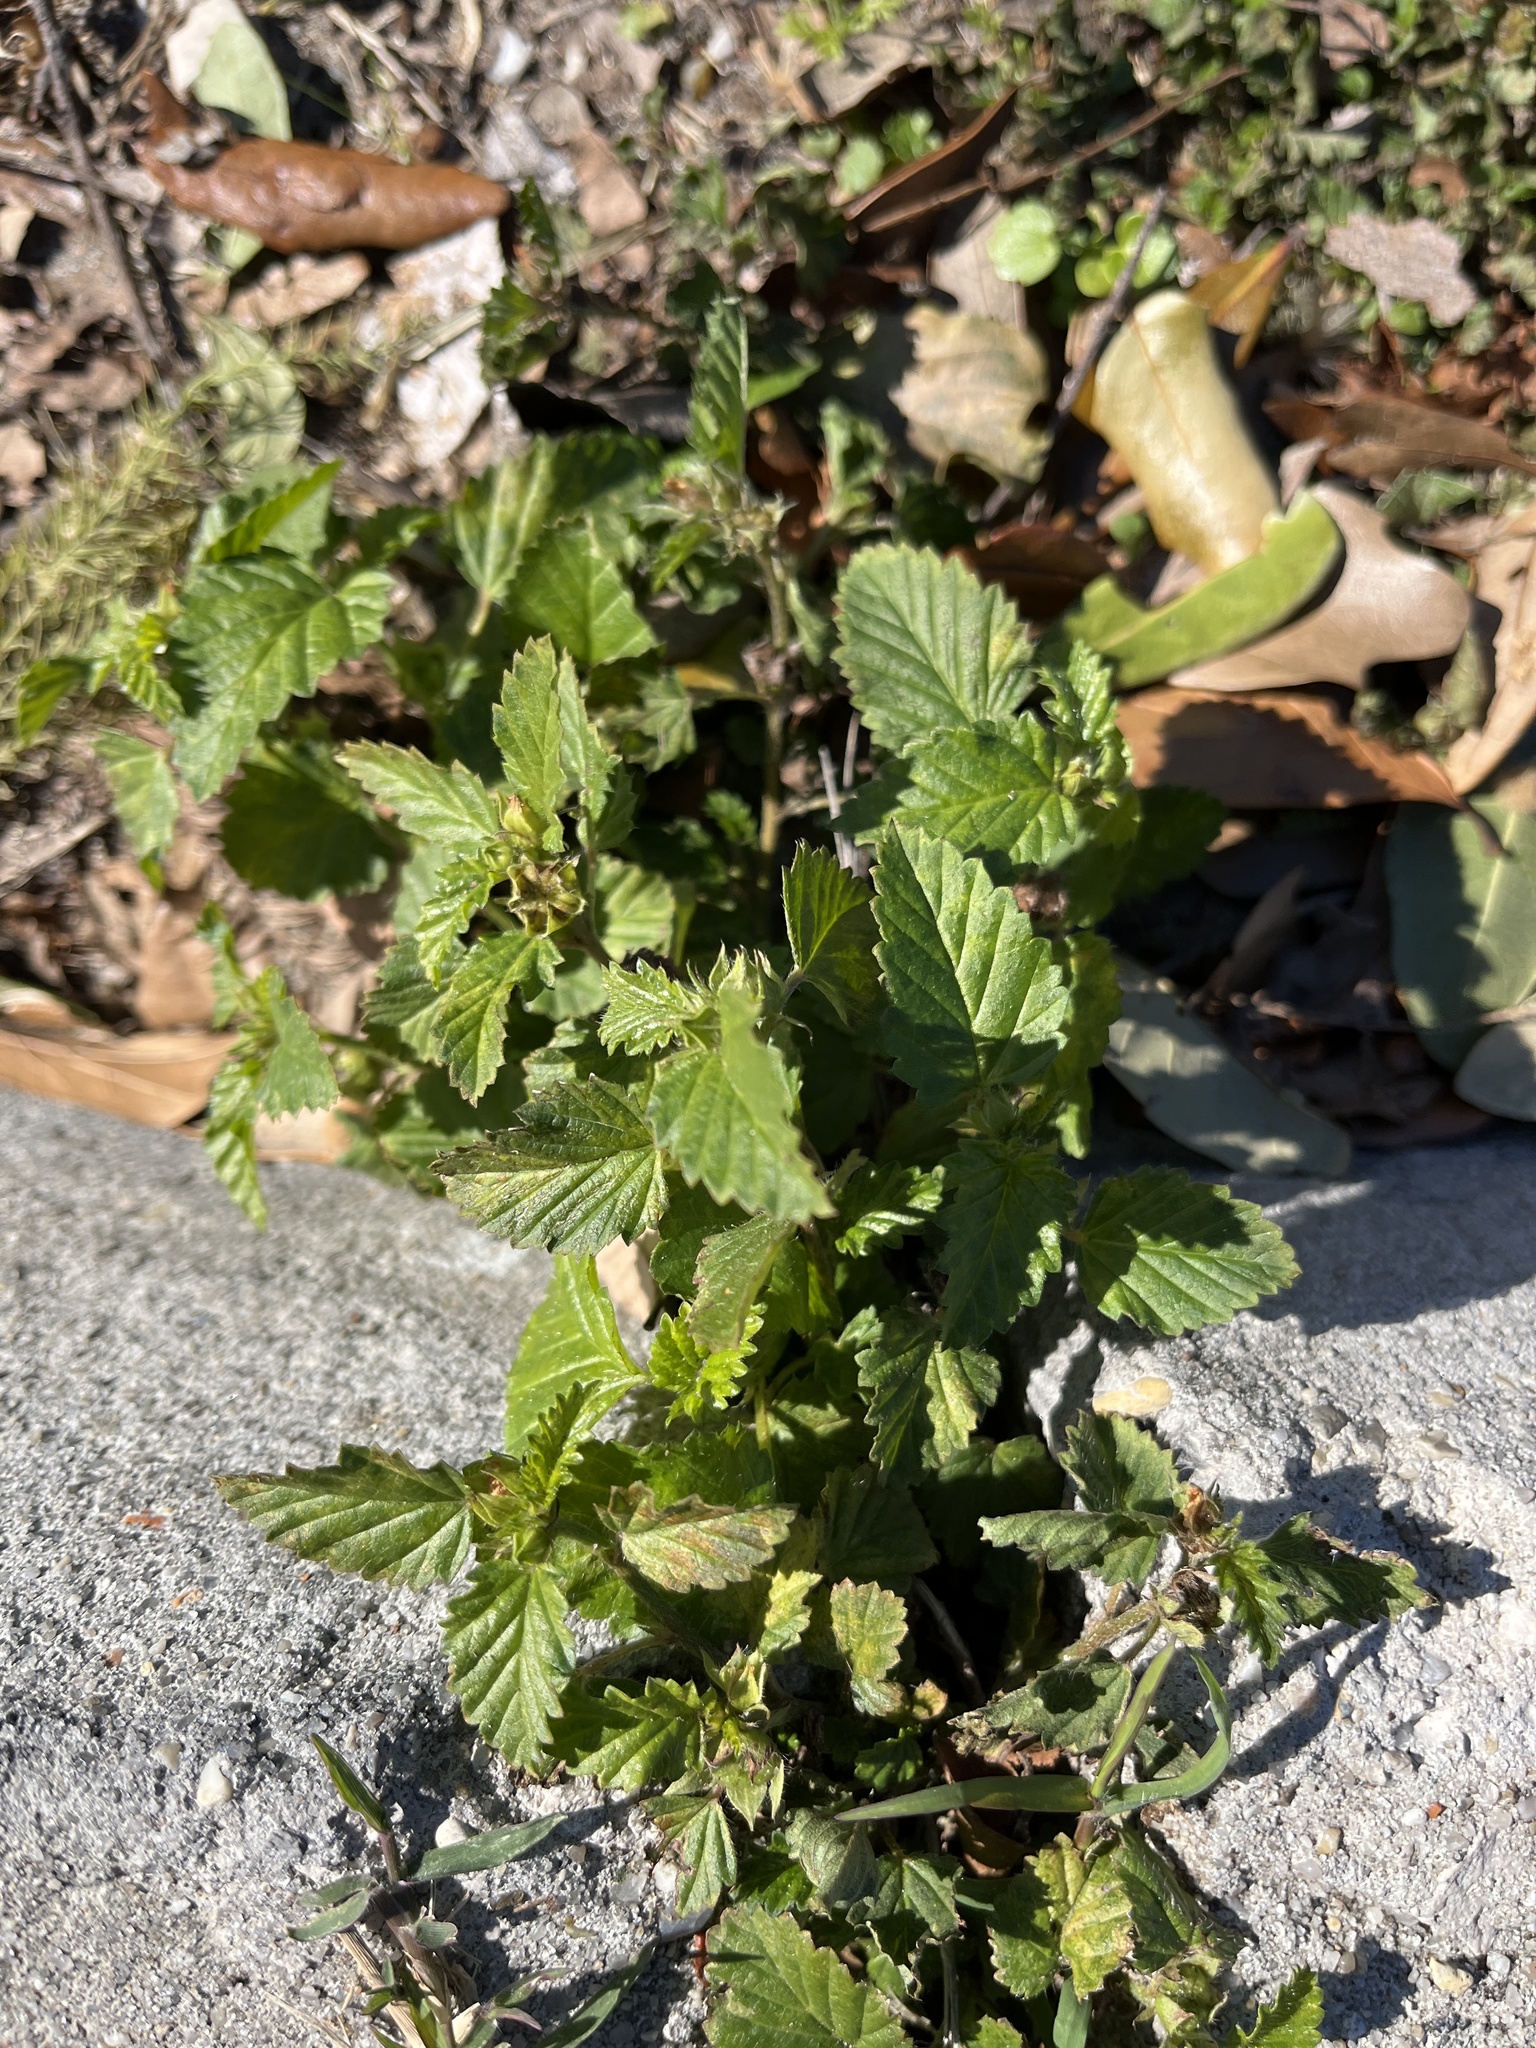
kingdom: Plantae
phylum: Tracheophyta
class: Magnoliopsida
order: Malvales
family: Malvaceae
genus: Malvastrum
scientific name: Malvastrum coromandelianum
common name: Threelobe false mallow
